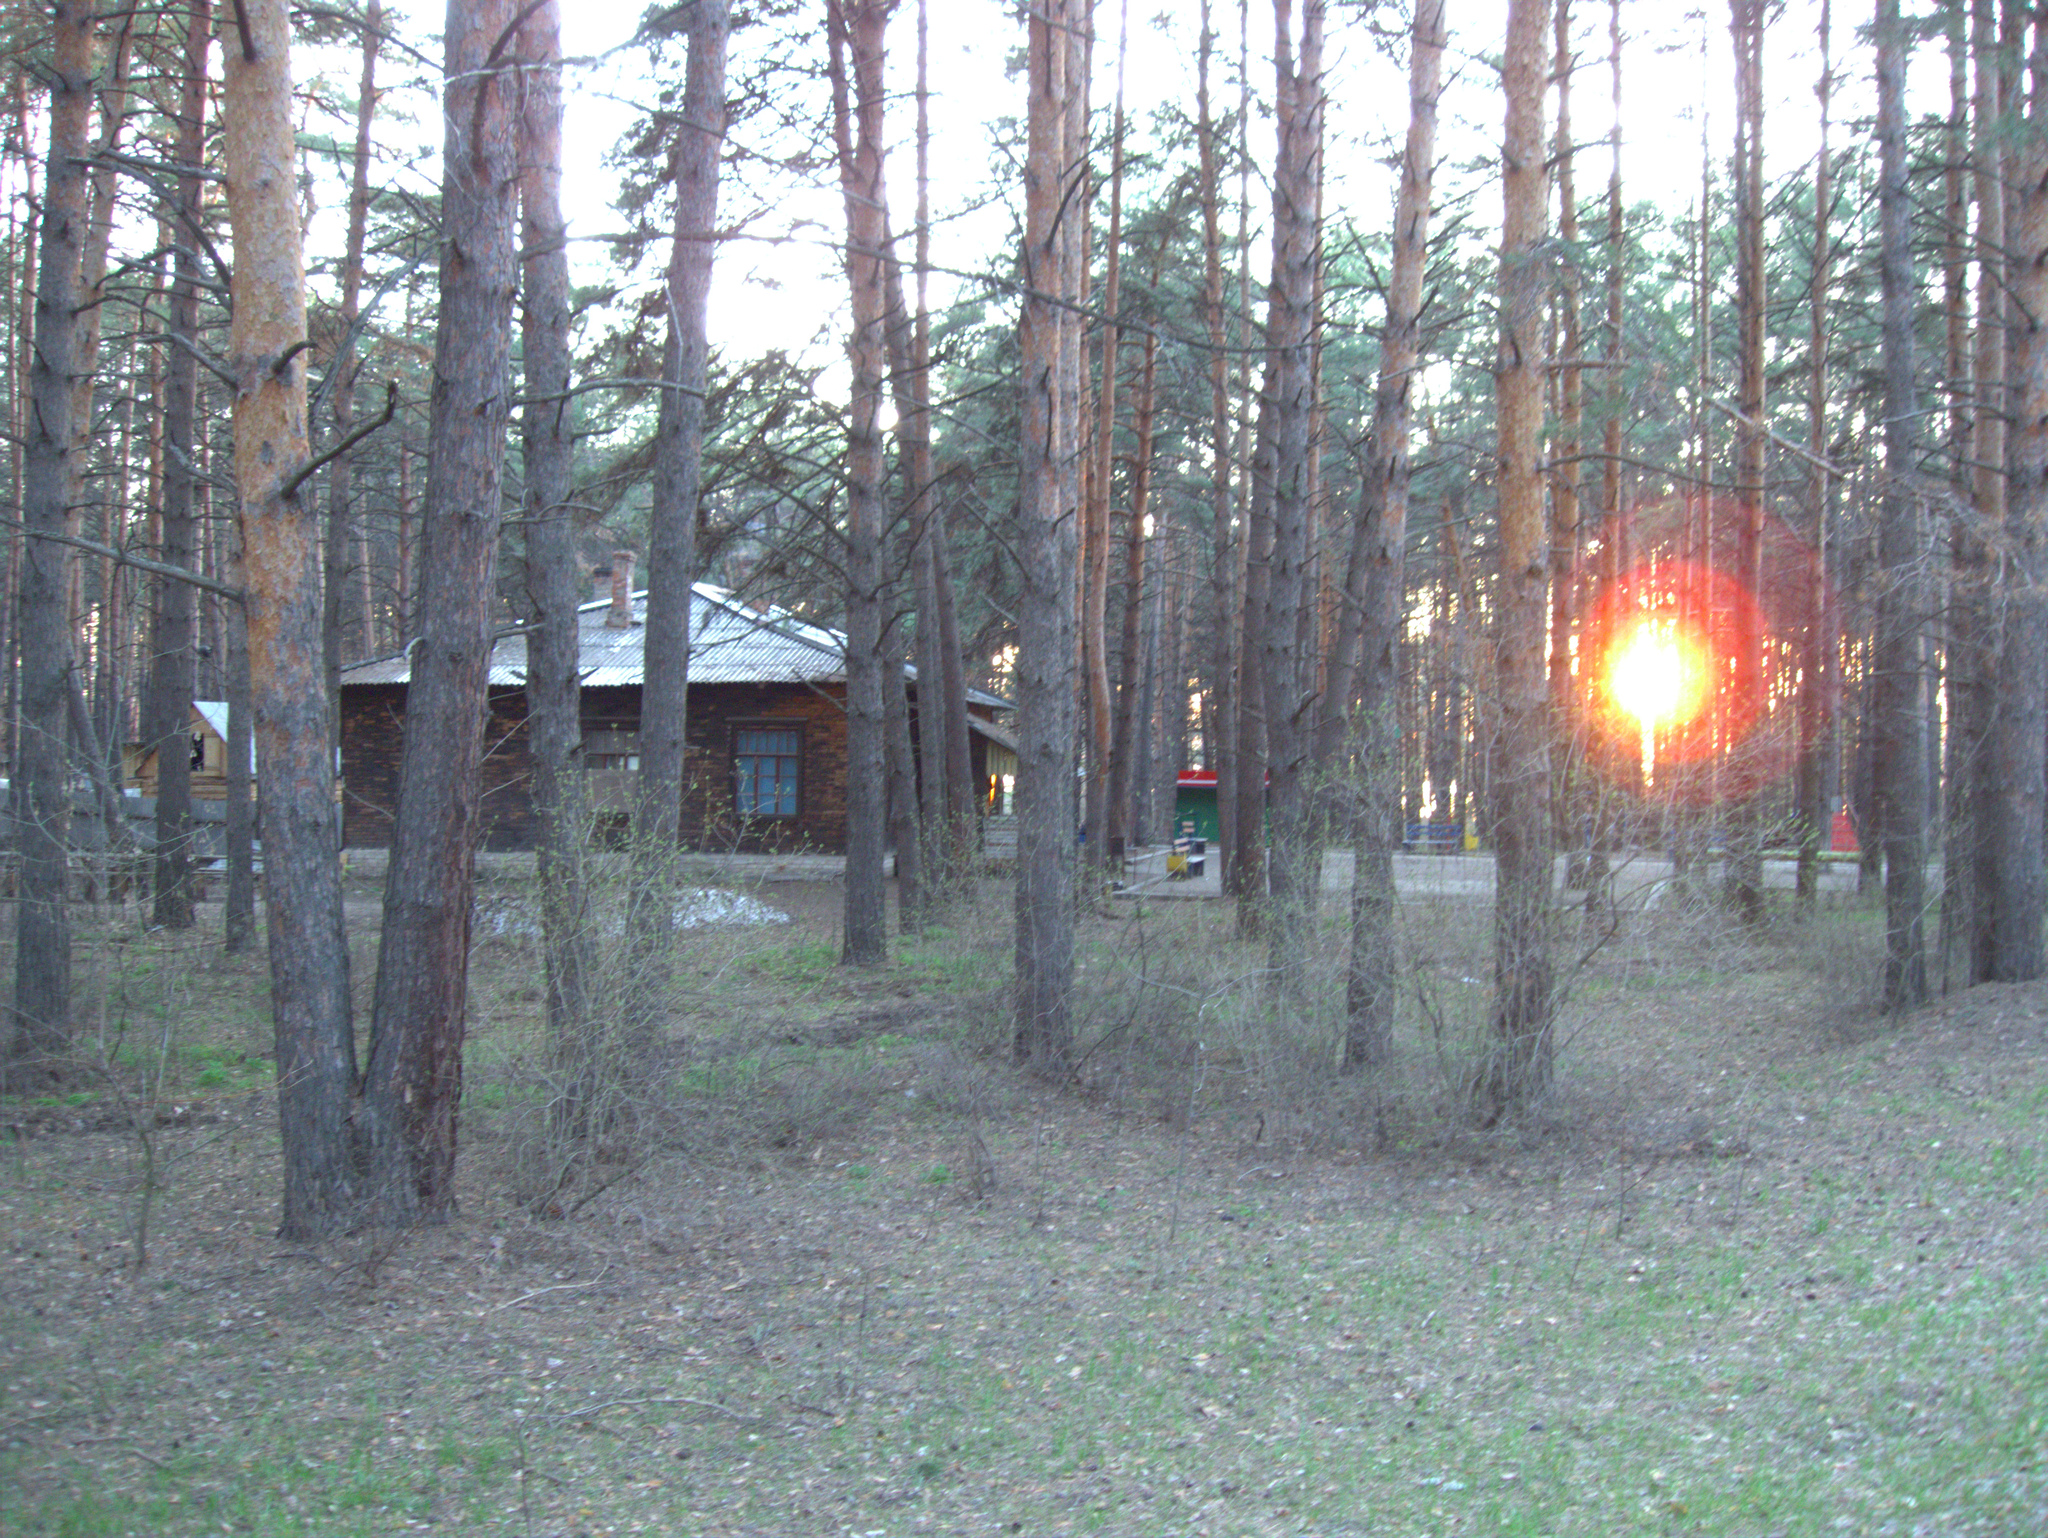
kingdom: Plantae
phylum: Tracheophyta
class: Pinopsida
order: Pinales
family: Pinaceae
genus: Pinus
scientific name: Pinus sylvestris
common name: Scots pine
